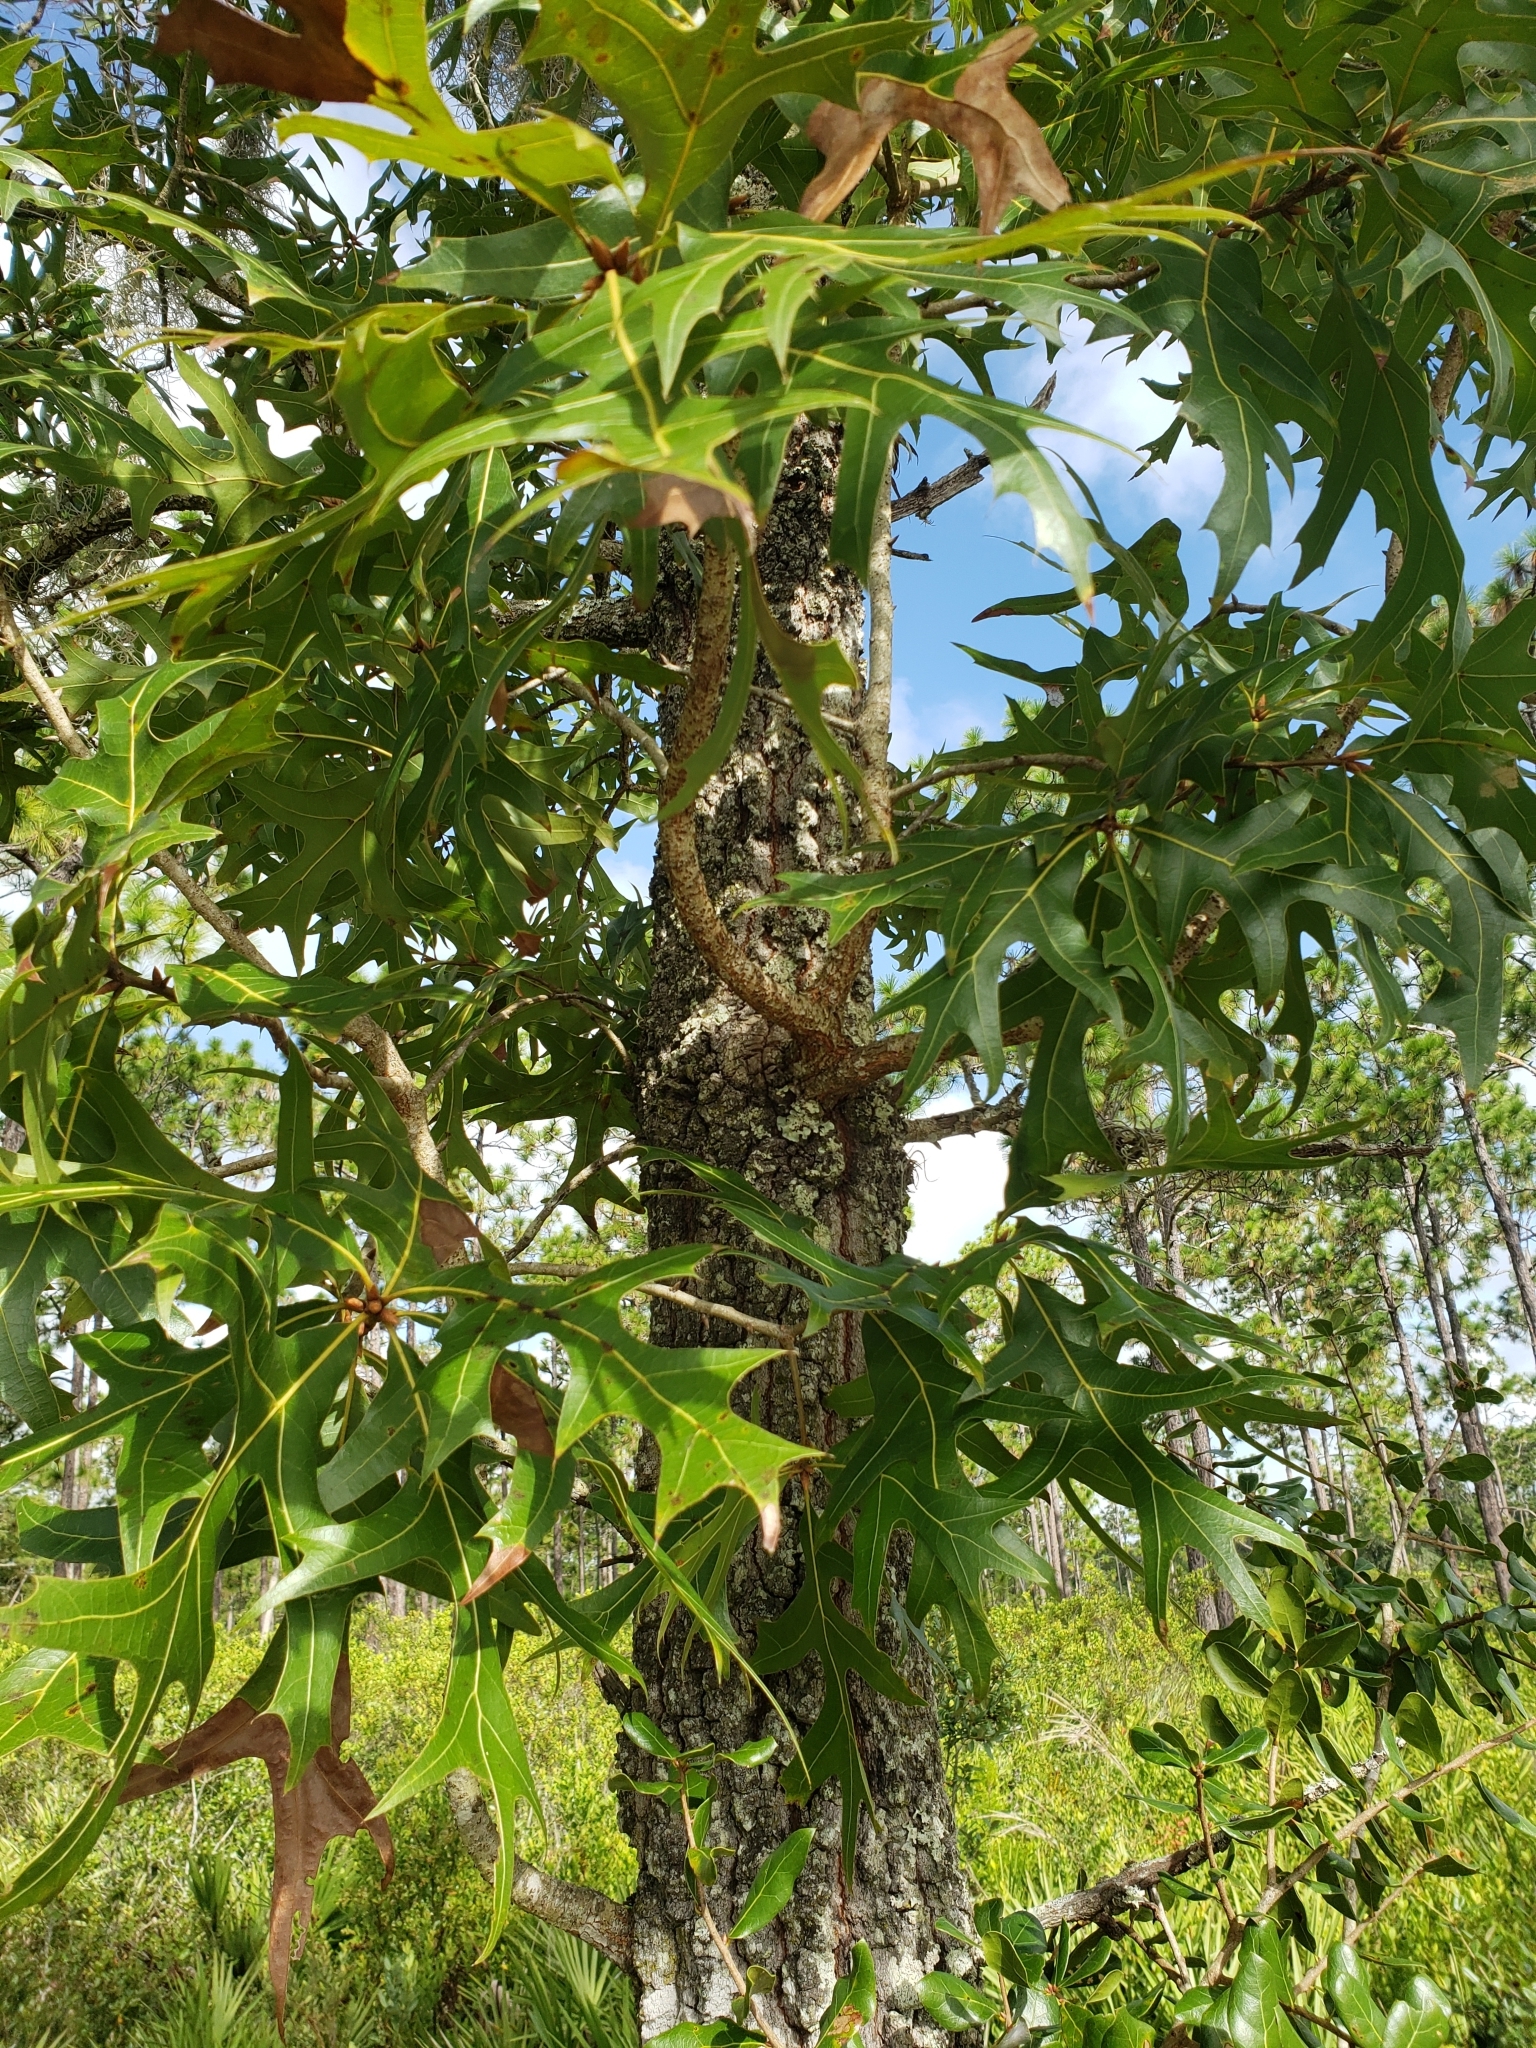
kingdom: Plantae
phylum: Tracheophyta
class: Magnoliopsida
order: Fagales
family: Fagaceae
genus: Quercus
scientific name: Quercus laevis
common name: Turkey oak
